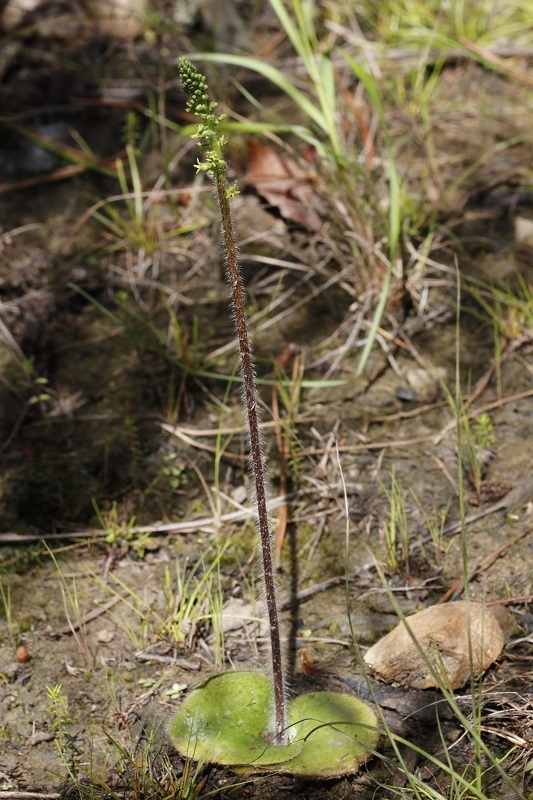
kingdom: Plantae
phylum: Tracheophyta
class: Liliopsida
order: Asparagales
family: Orchidaceae
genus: Holothrix
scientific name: Holothrix villosa
